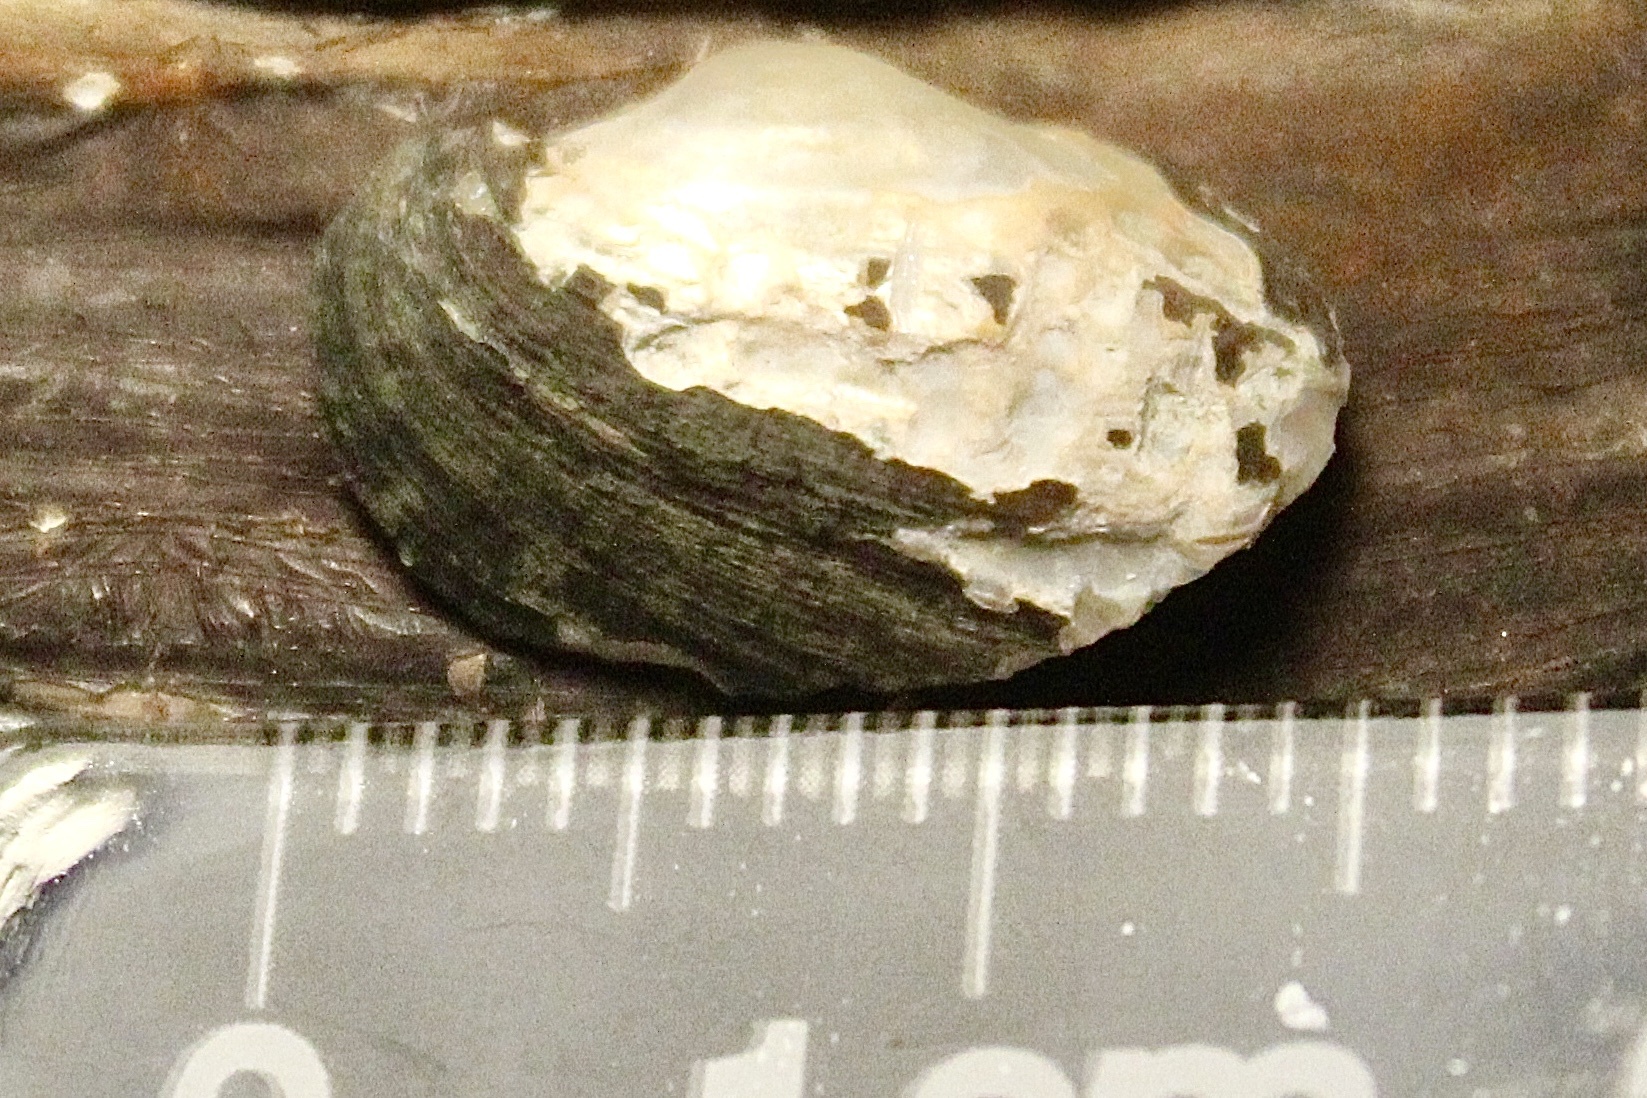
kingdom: Animalia
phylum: Mollusca
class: Bivalvia
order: Unionida
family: Unionidae
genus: Toxolasma
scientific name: Toxolasma parvum
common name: Lilliput
